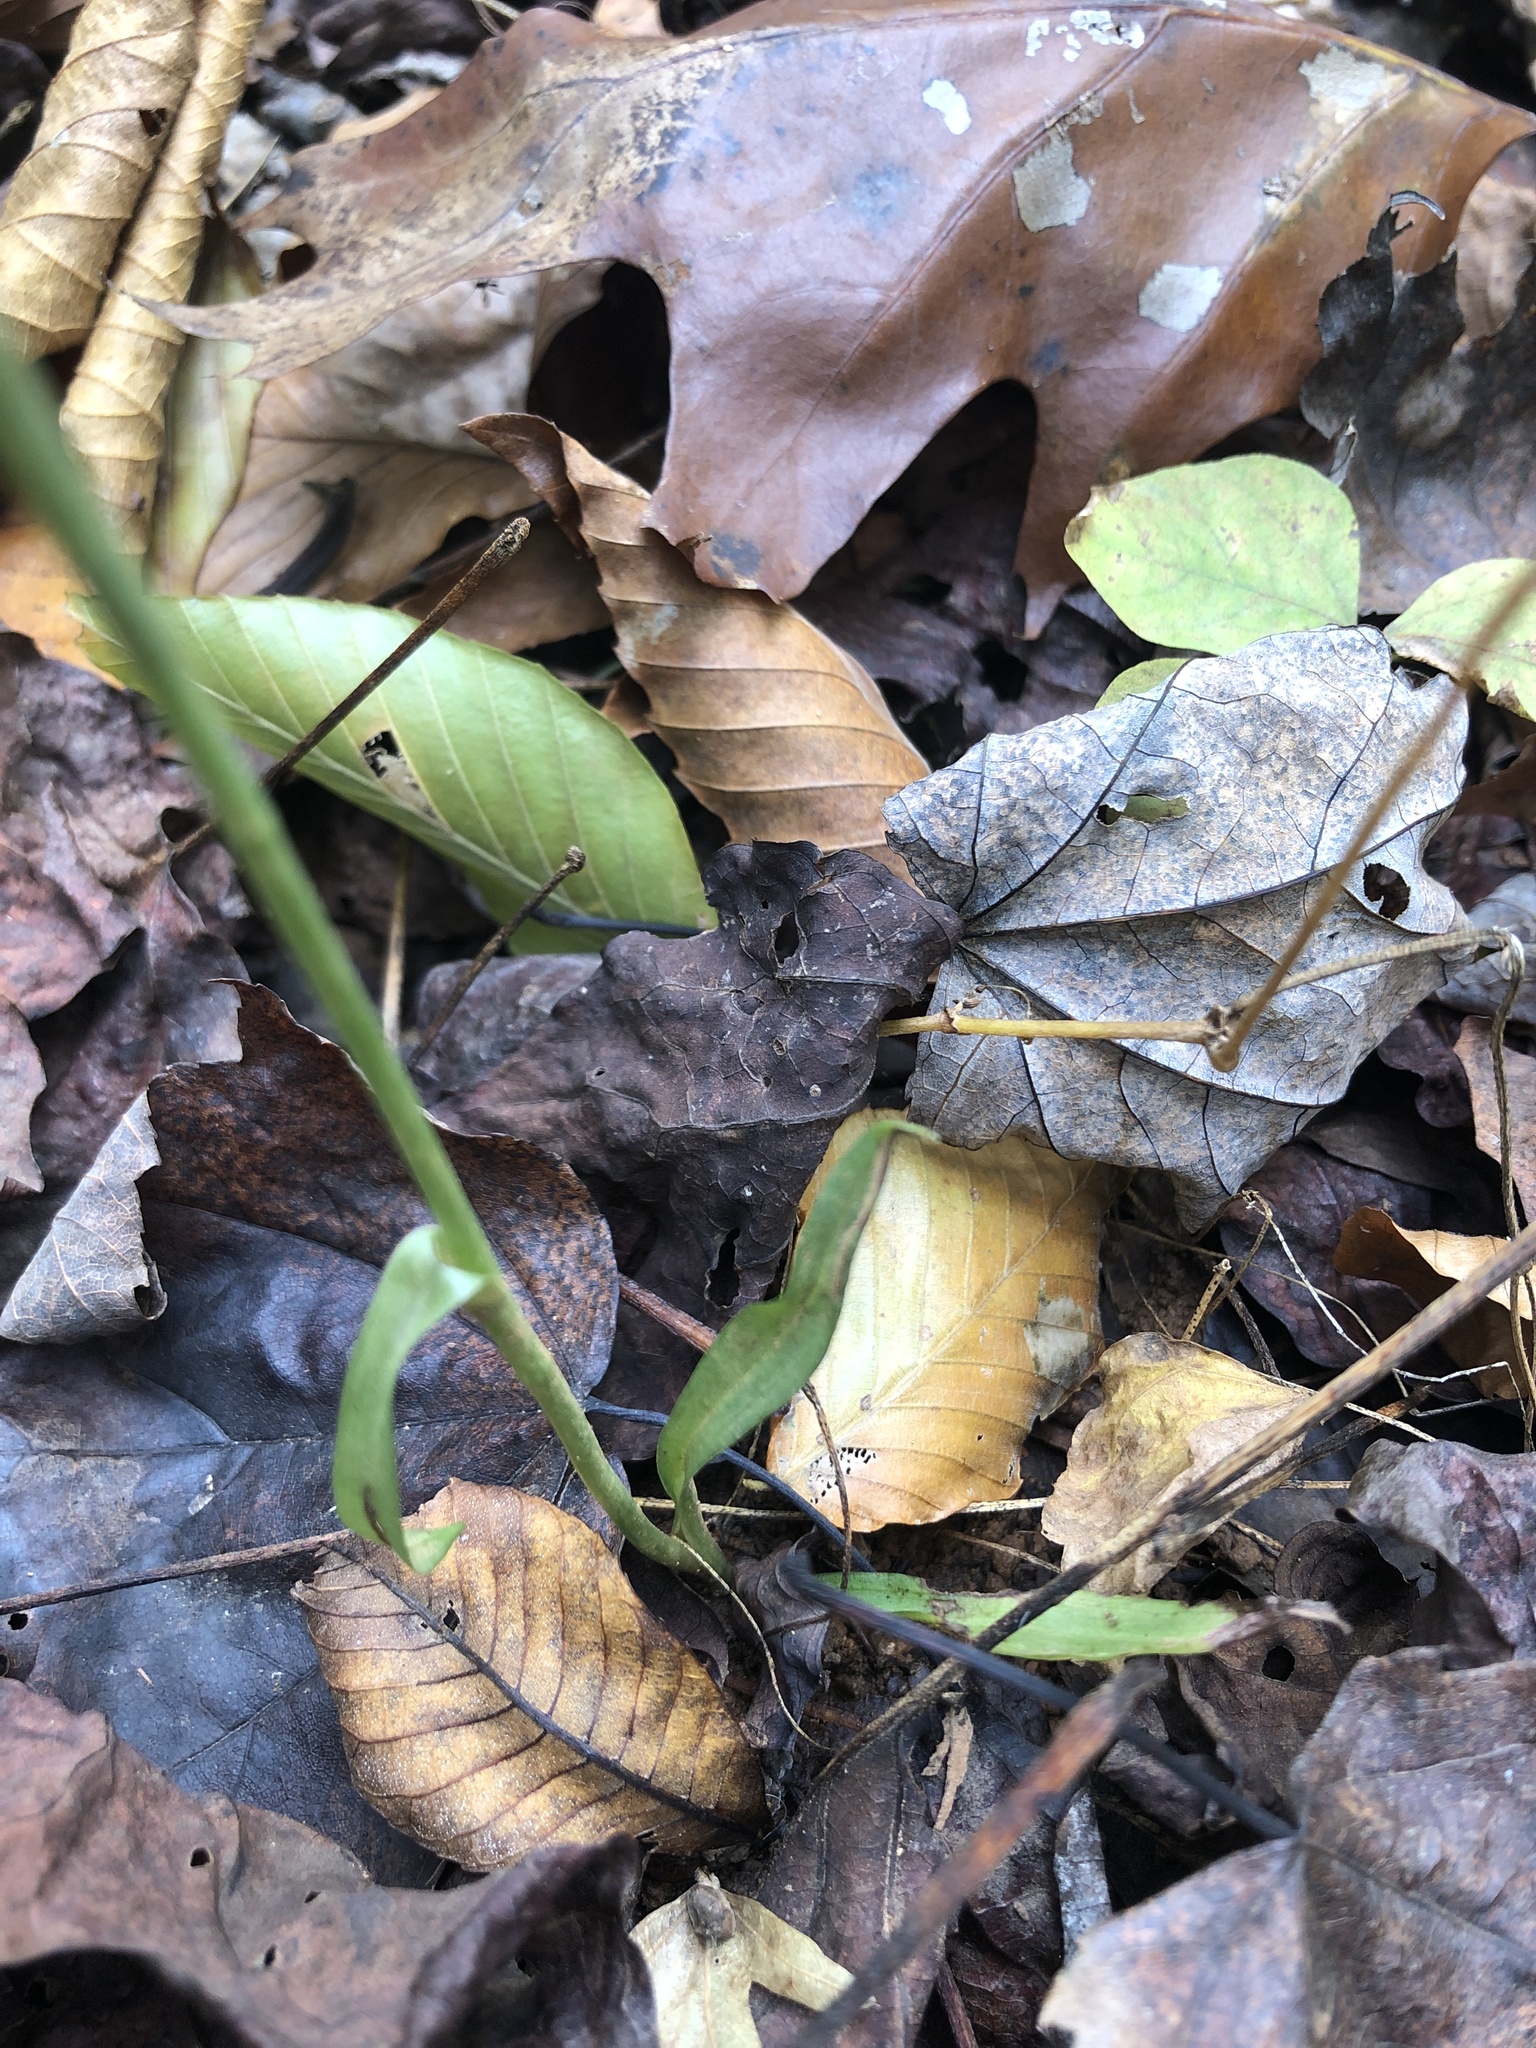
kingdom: Plantae
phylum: Tracheophyta
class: Liliopsida
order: Asparagales
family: Orchidaceae
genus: Spiranthes
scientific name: Spiranthes ovalis
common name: October ladies'-tresses
